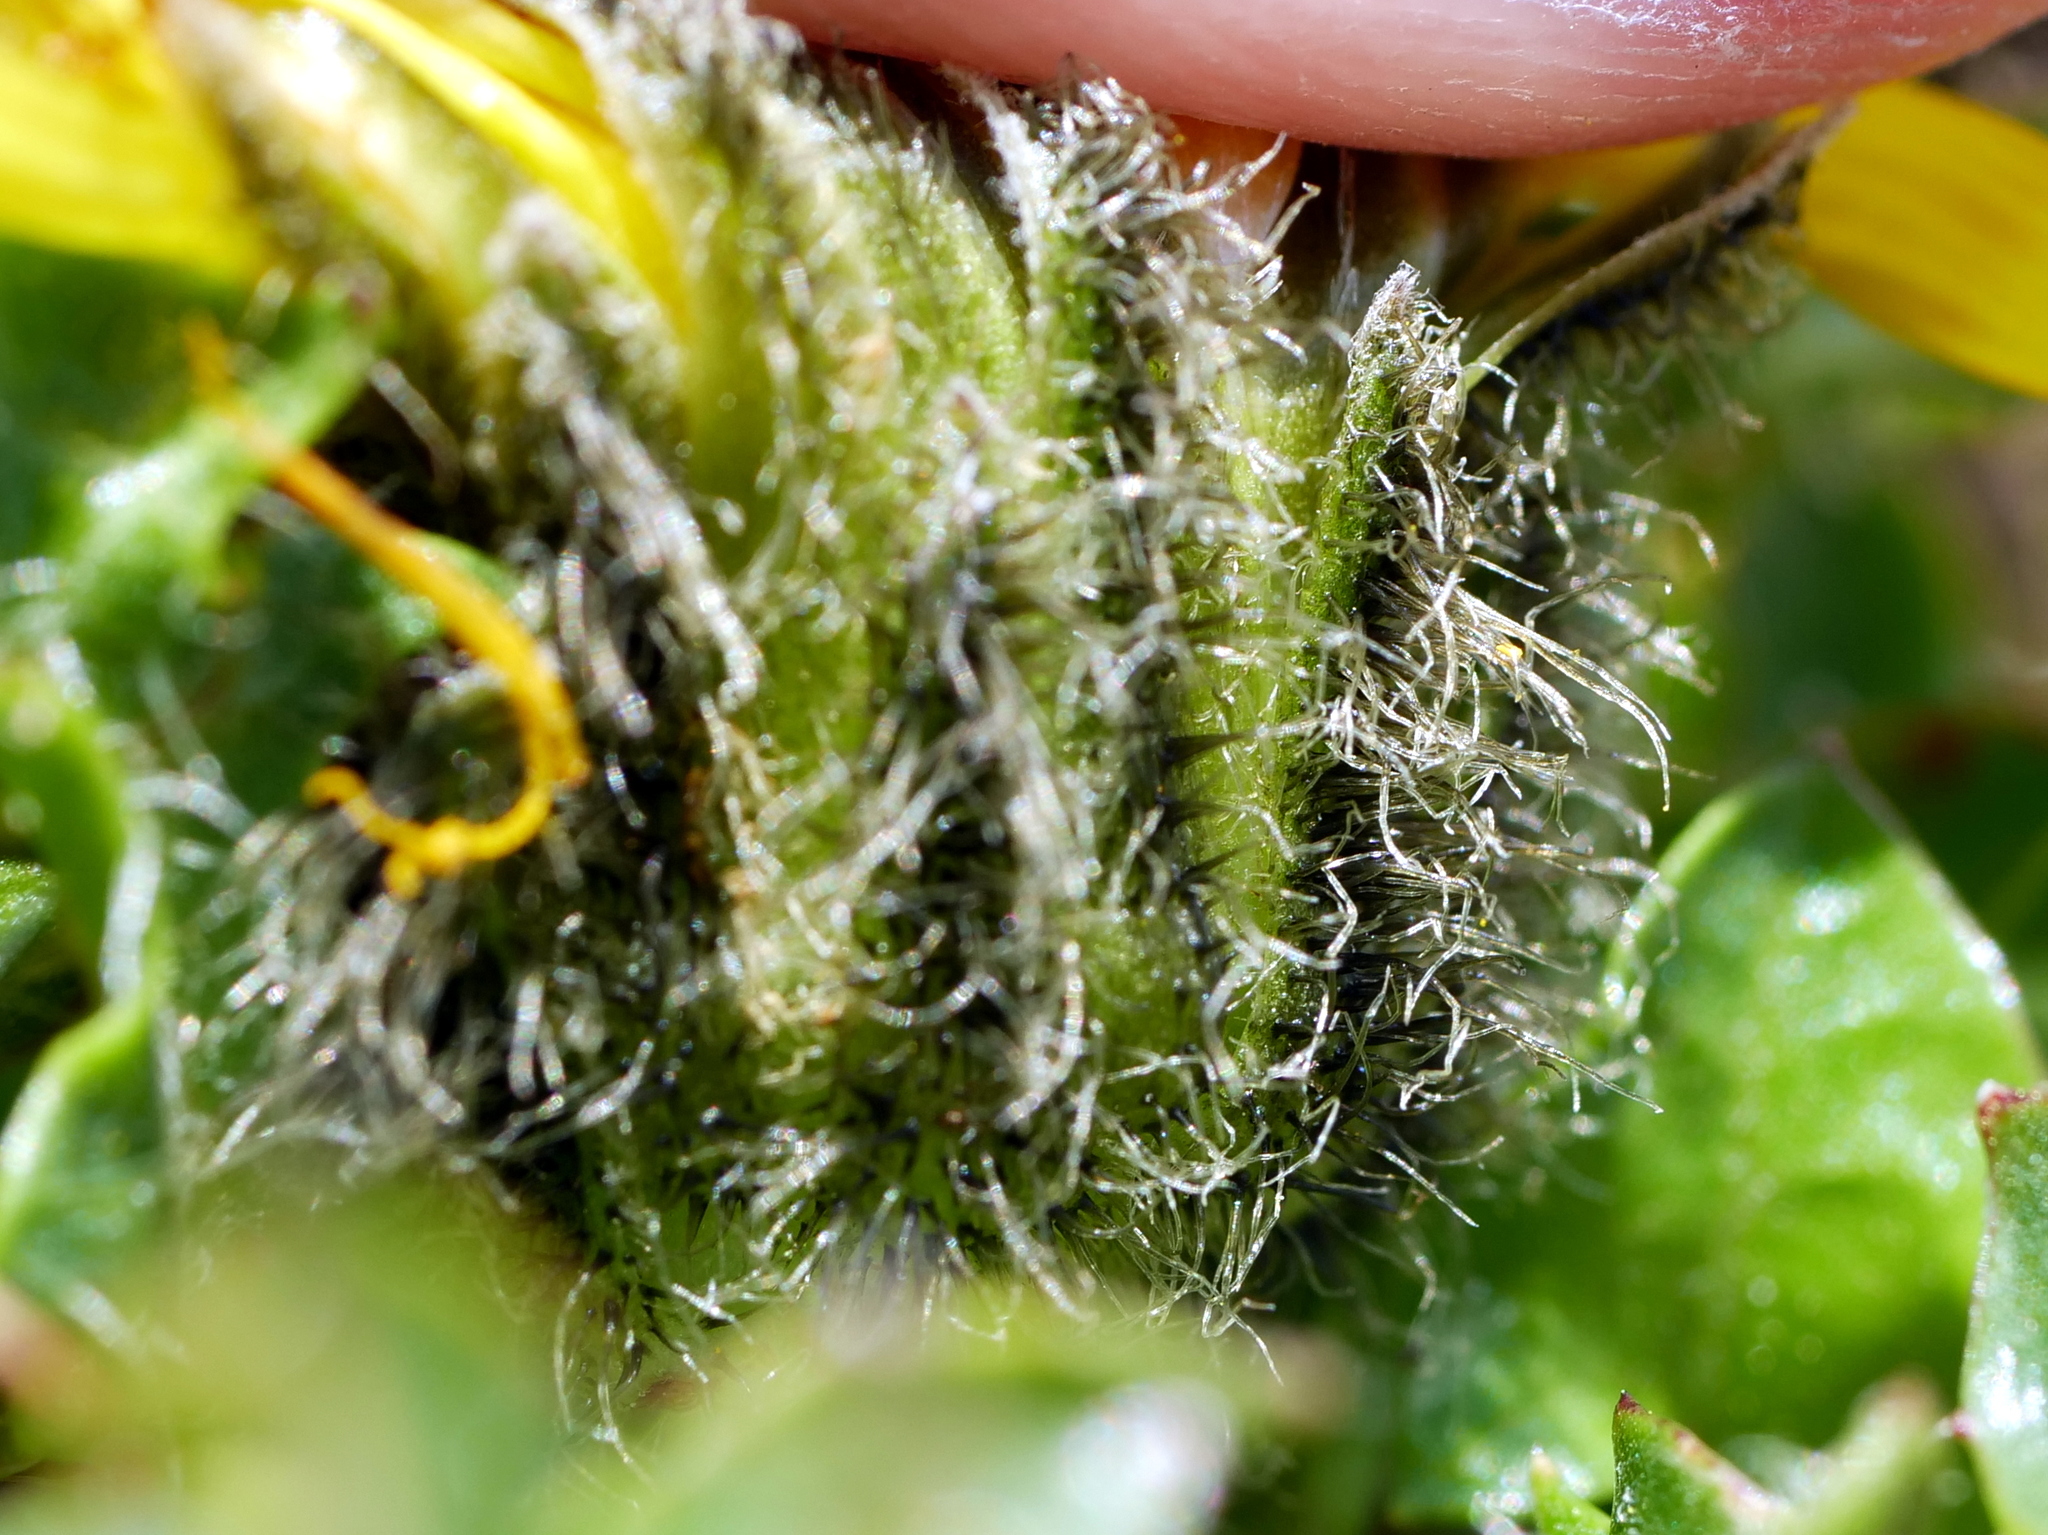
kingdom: Plantae
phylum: Tracheophyta
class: Magnoliopsida
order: Asterales
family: Asteraceae
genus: Crepis
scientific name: Crepis terglouensis
